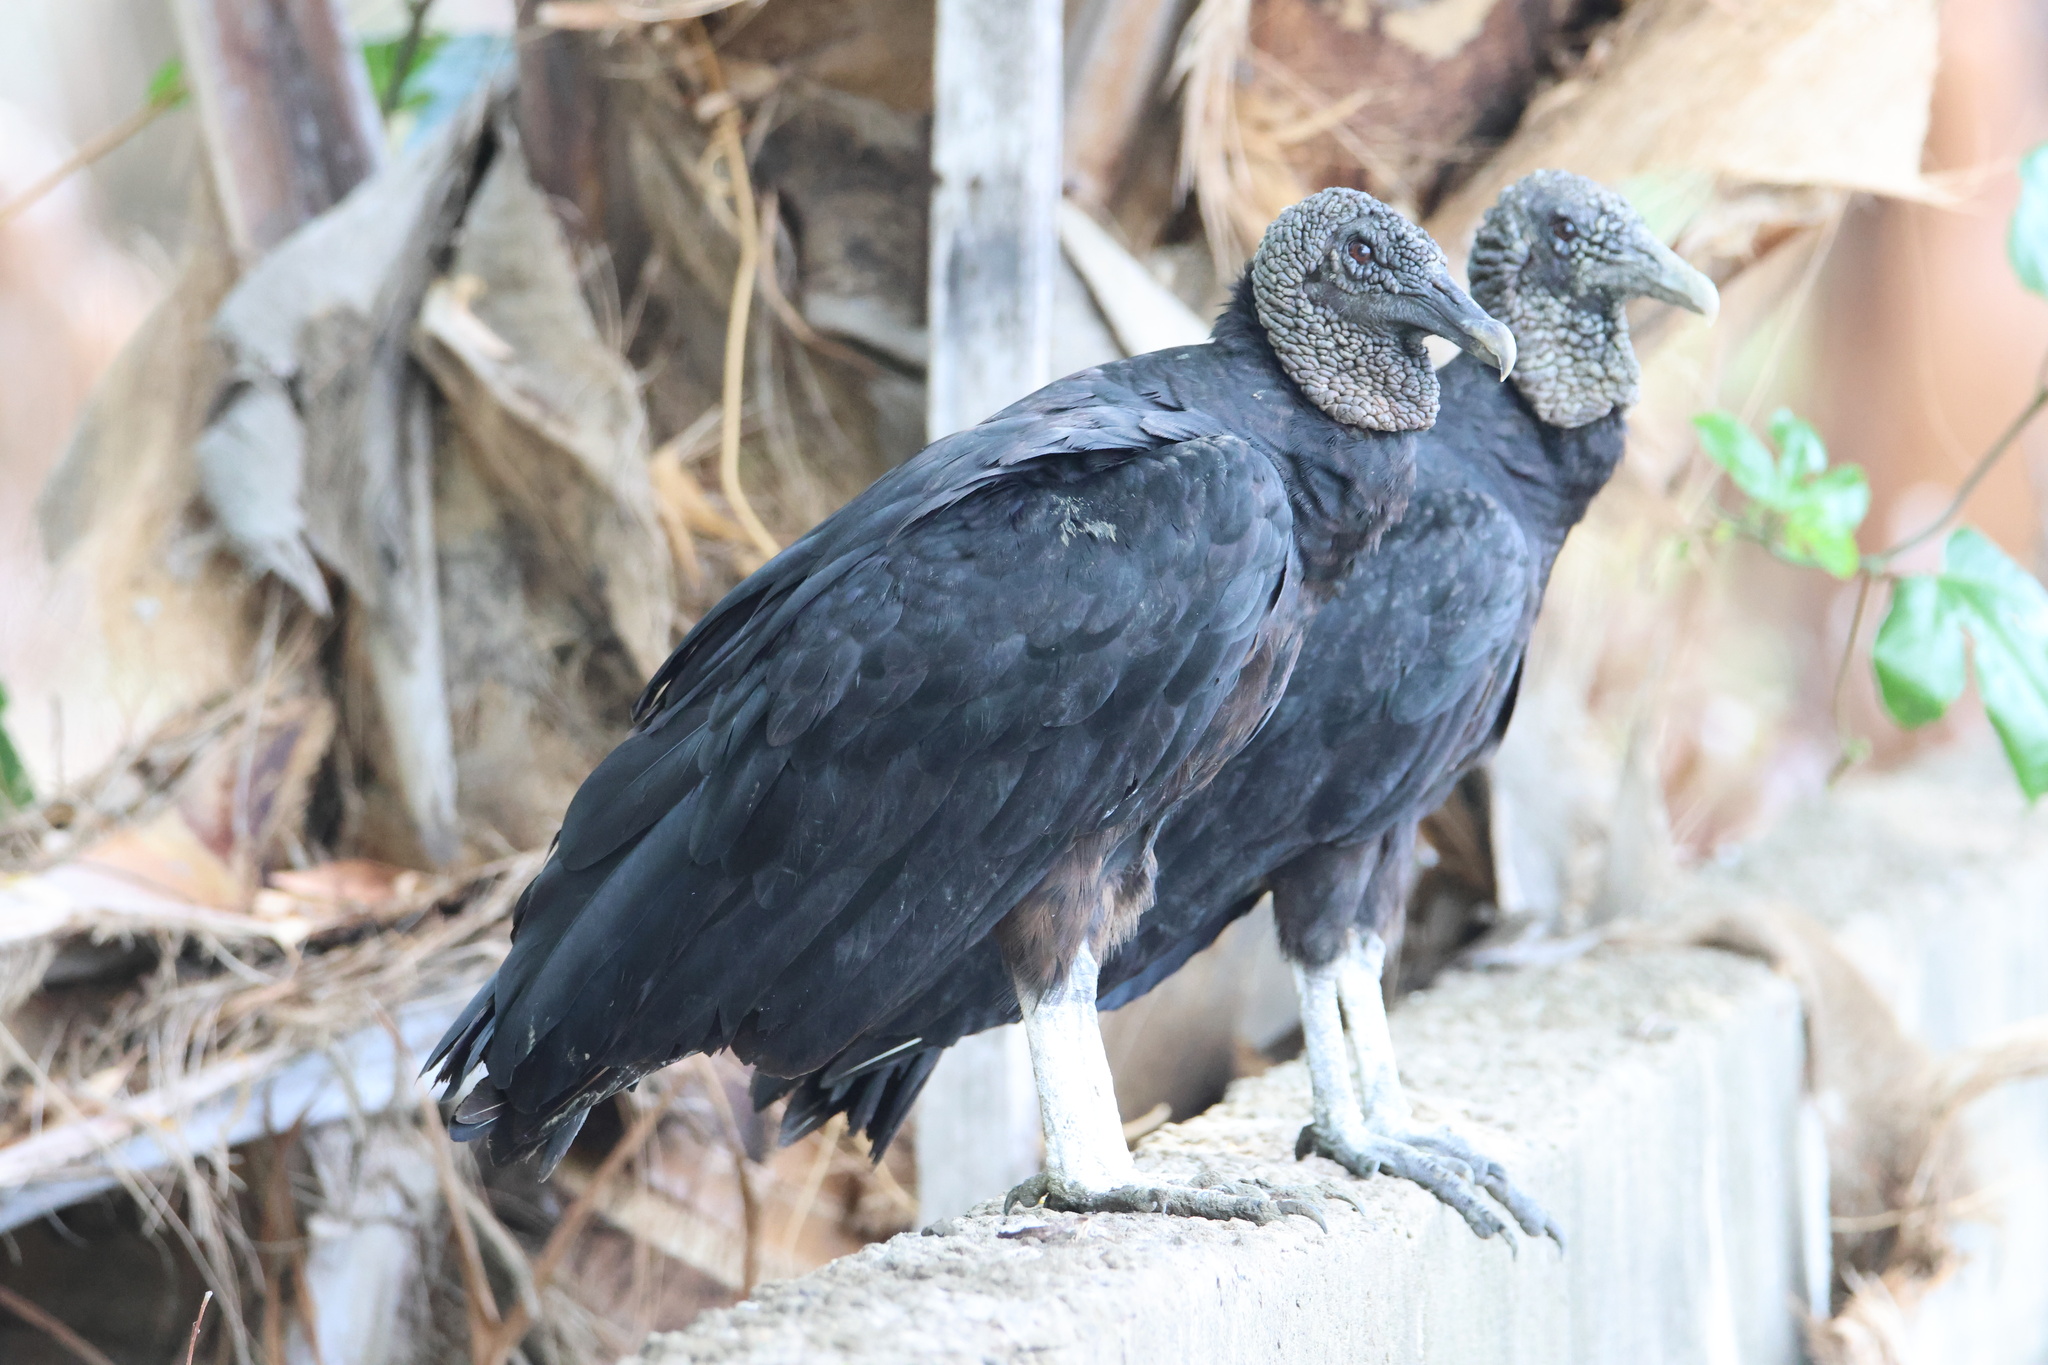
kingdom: Animalia
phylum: Chordata
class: Aves
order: Accipitriformes
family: Cathartidae
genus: Coragyps
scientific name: Coragyps atratus
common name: Black vulture
